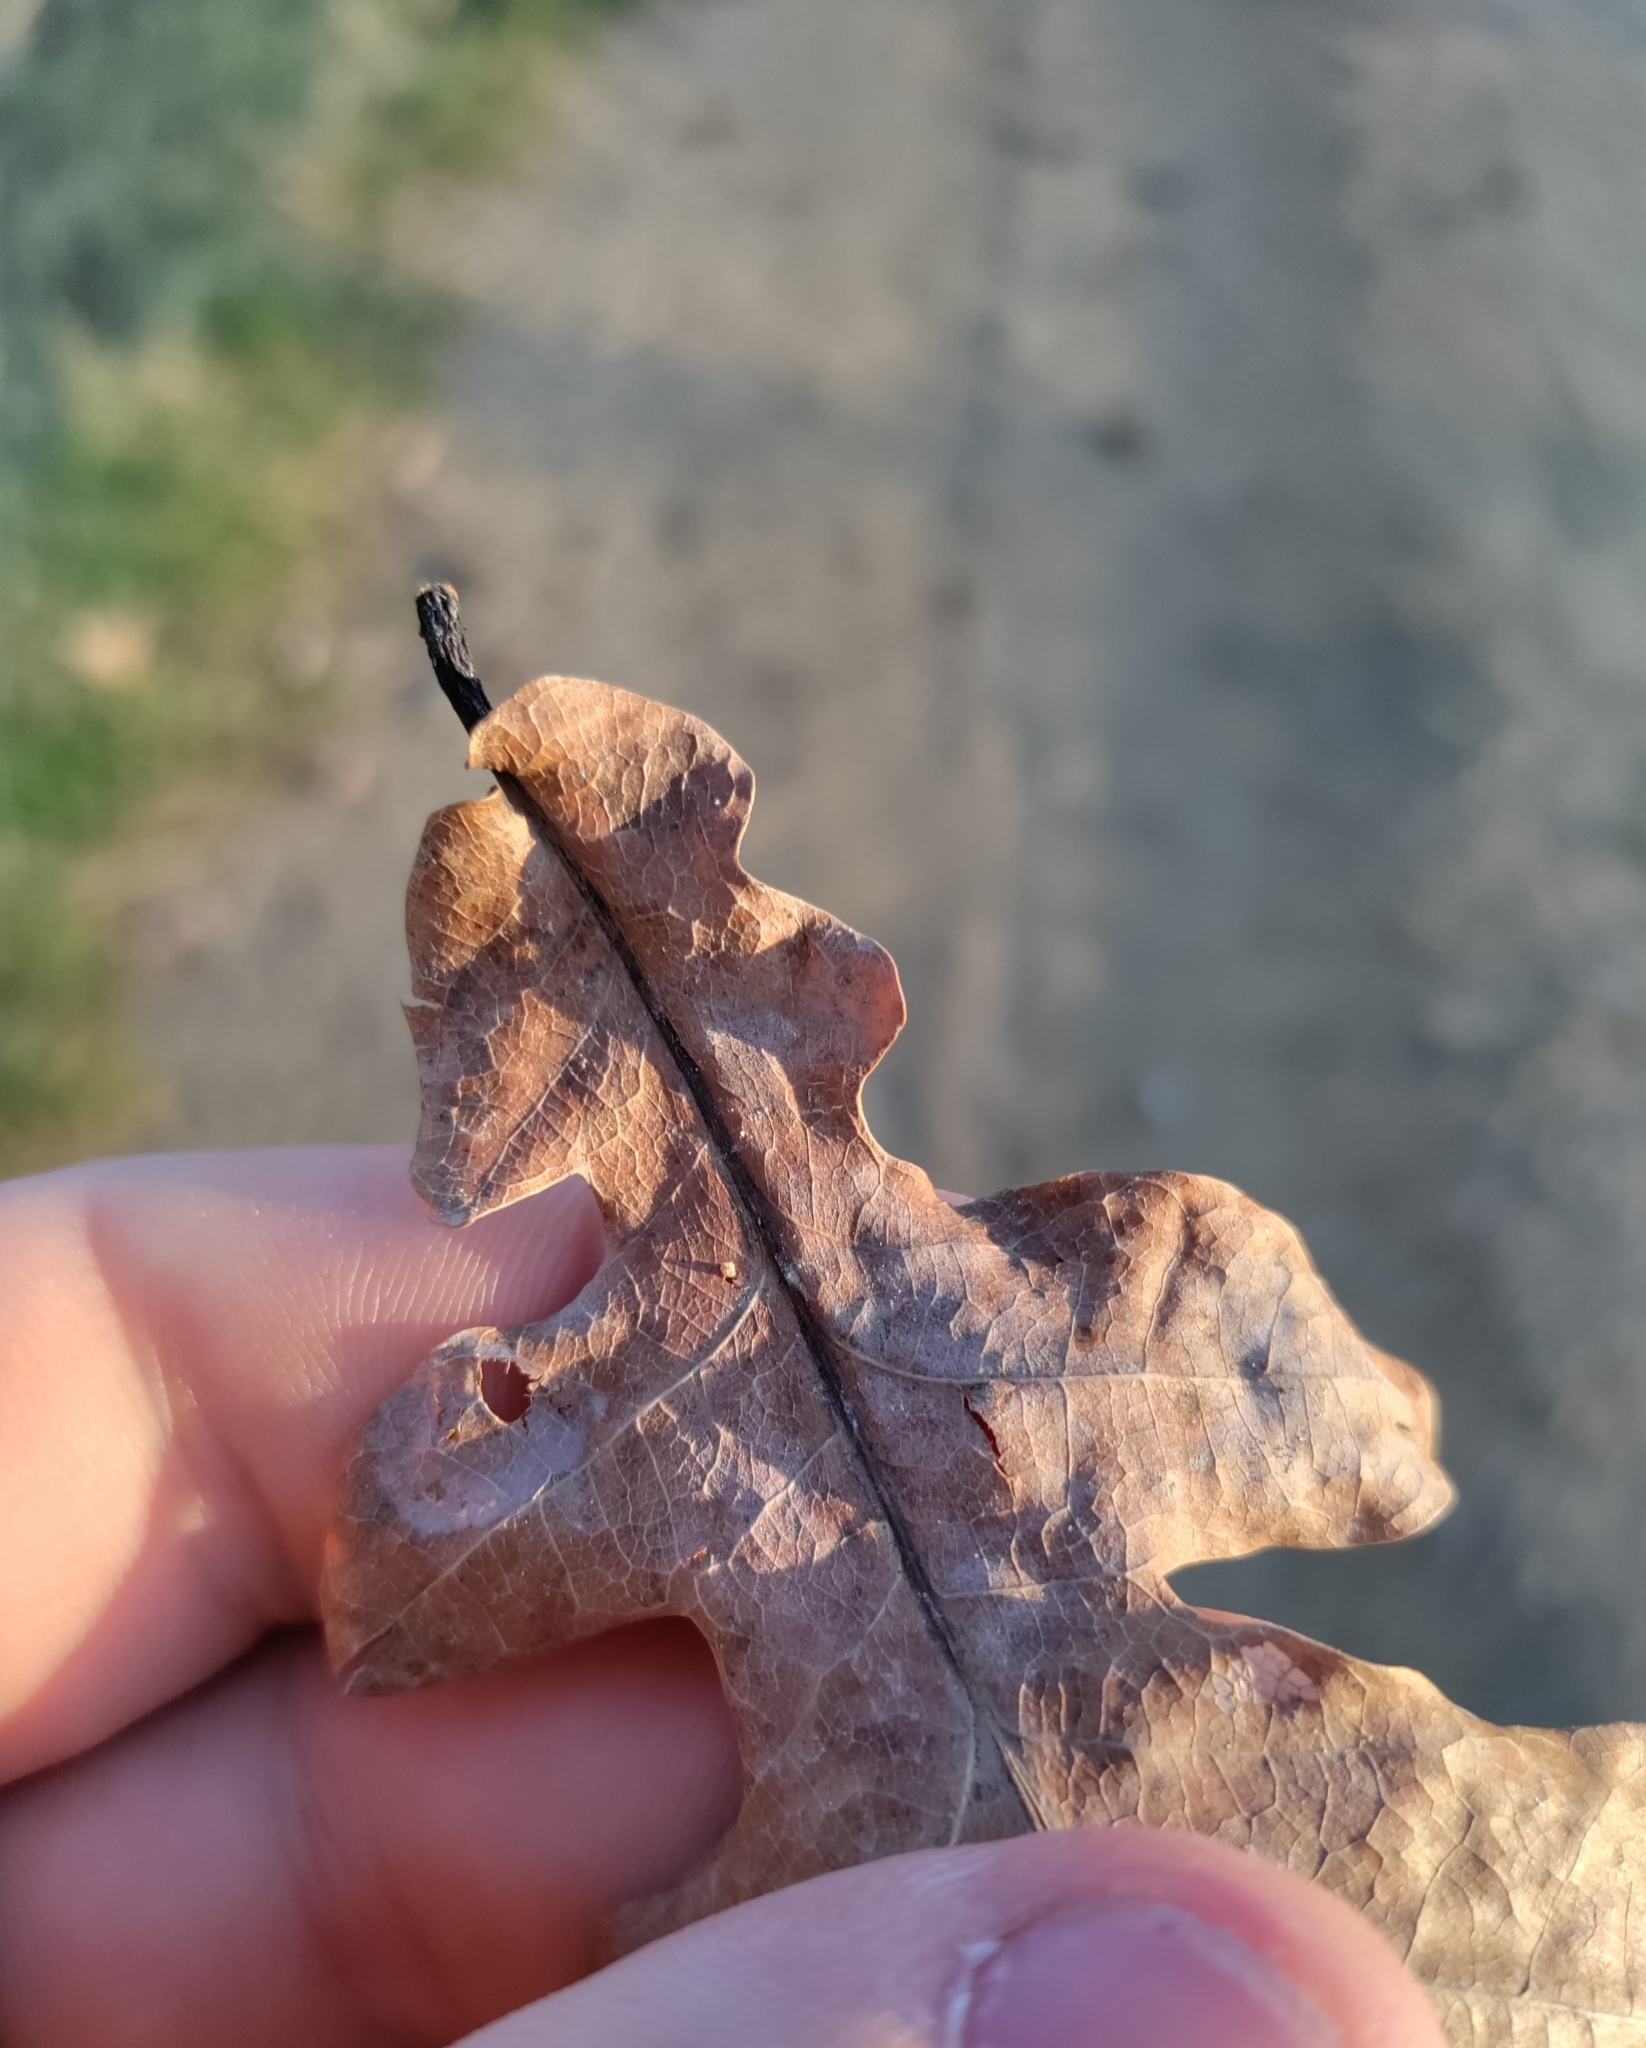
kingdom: Plantae
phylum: Tracheophyta
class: Magnoliopsida
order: Fagales
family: Fagaceae
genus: Quercus
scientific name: Quercus robur
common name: Pedunculate oak
